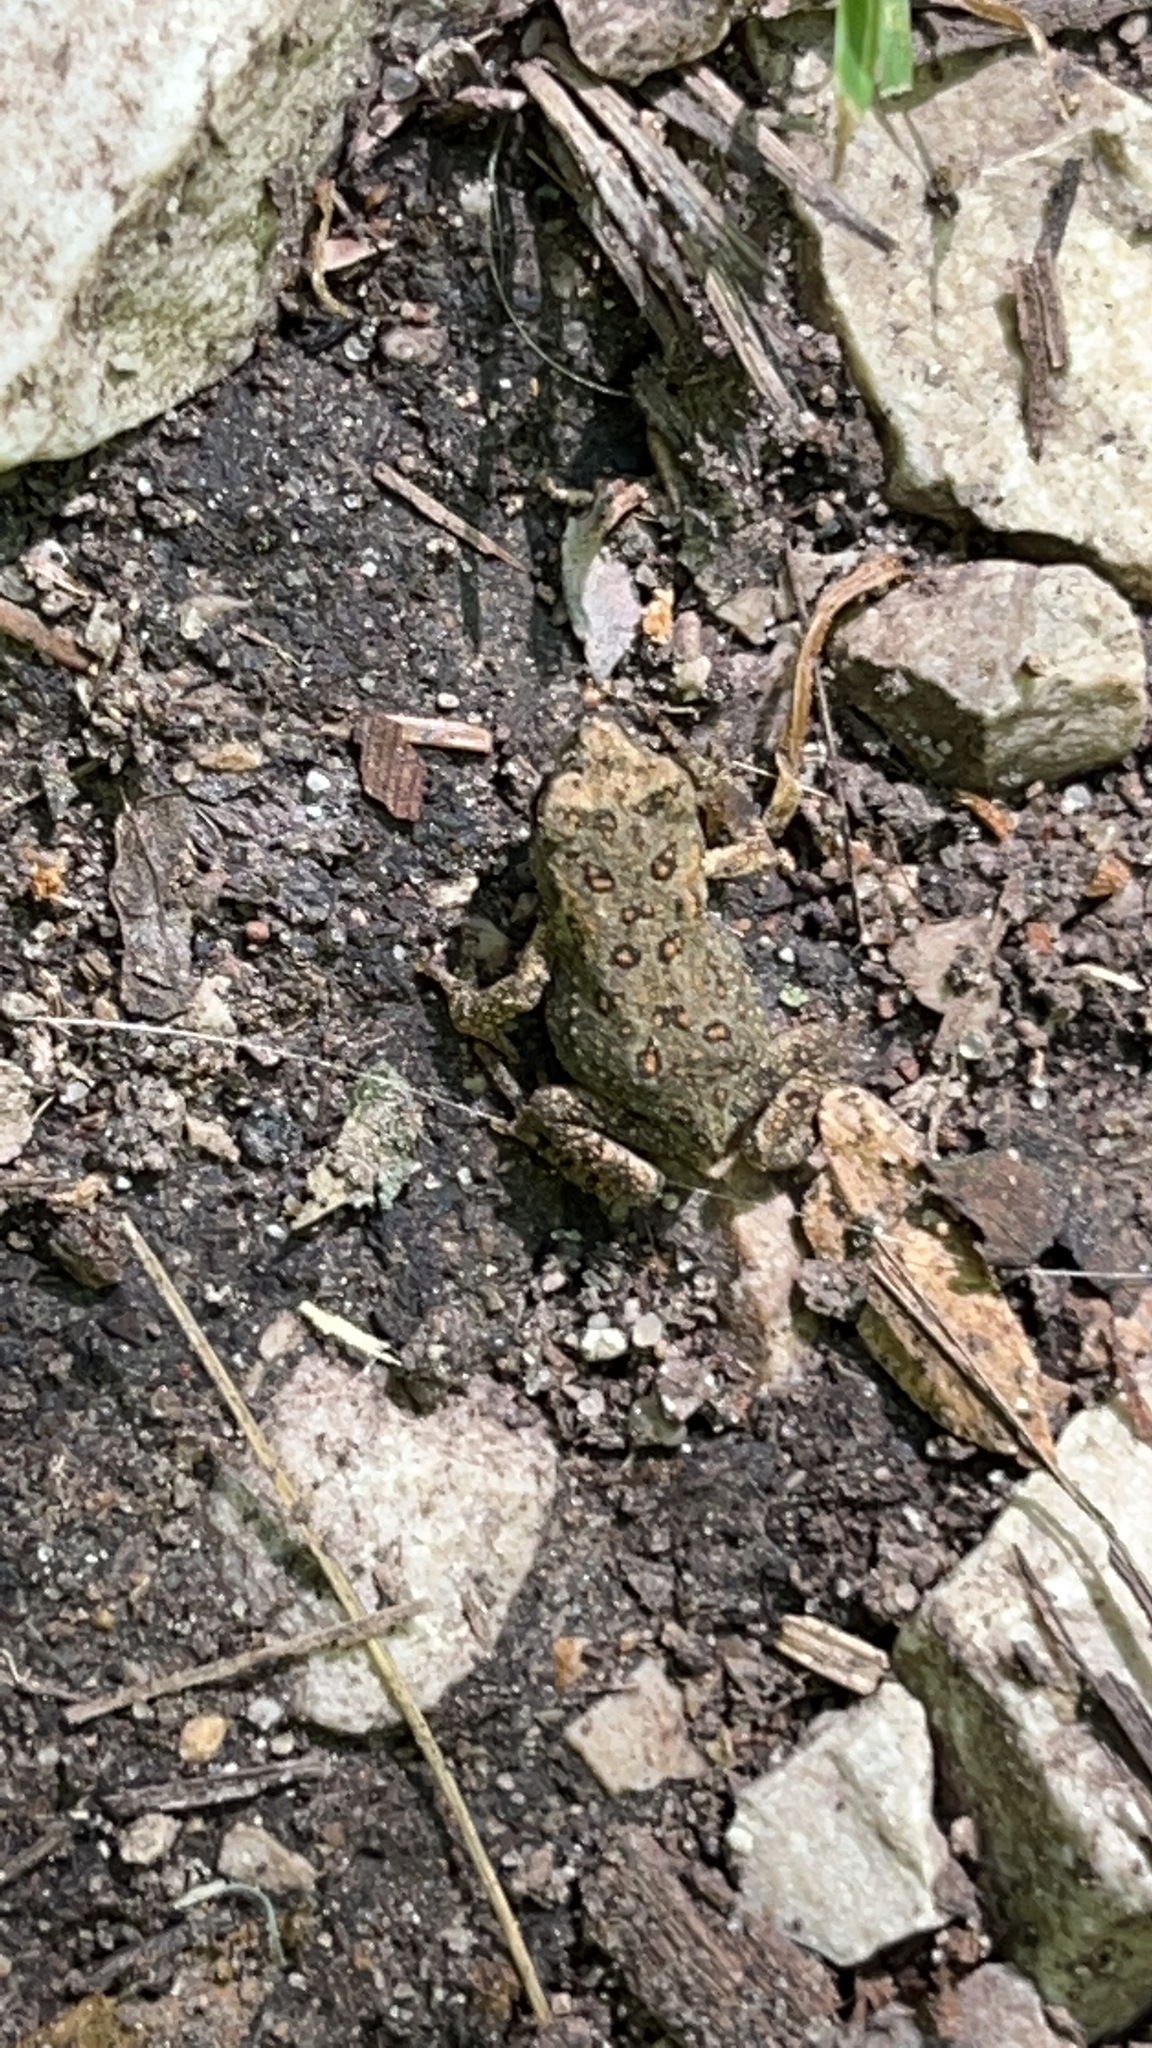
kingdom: Animalia
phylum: Chordata
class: Amphibia
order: Anura
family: Bufonidae
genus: Anaxyrus
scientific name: Anaxyrus americanus
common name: American toad
